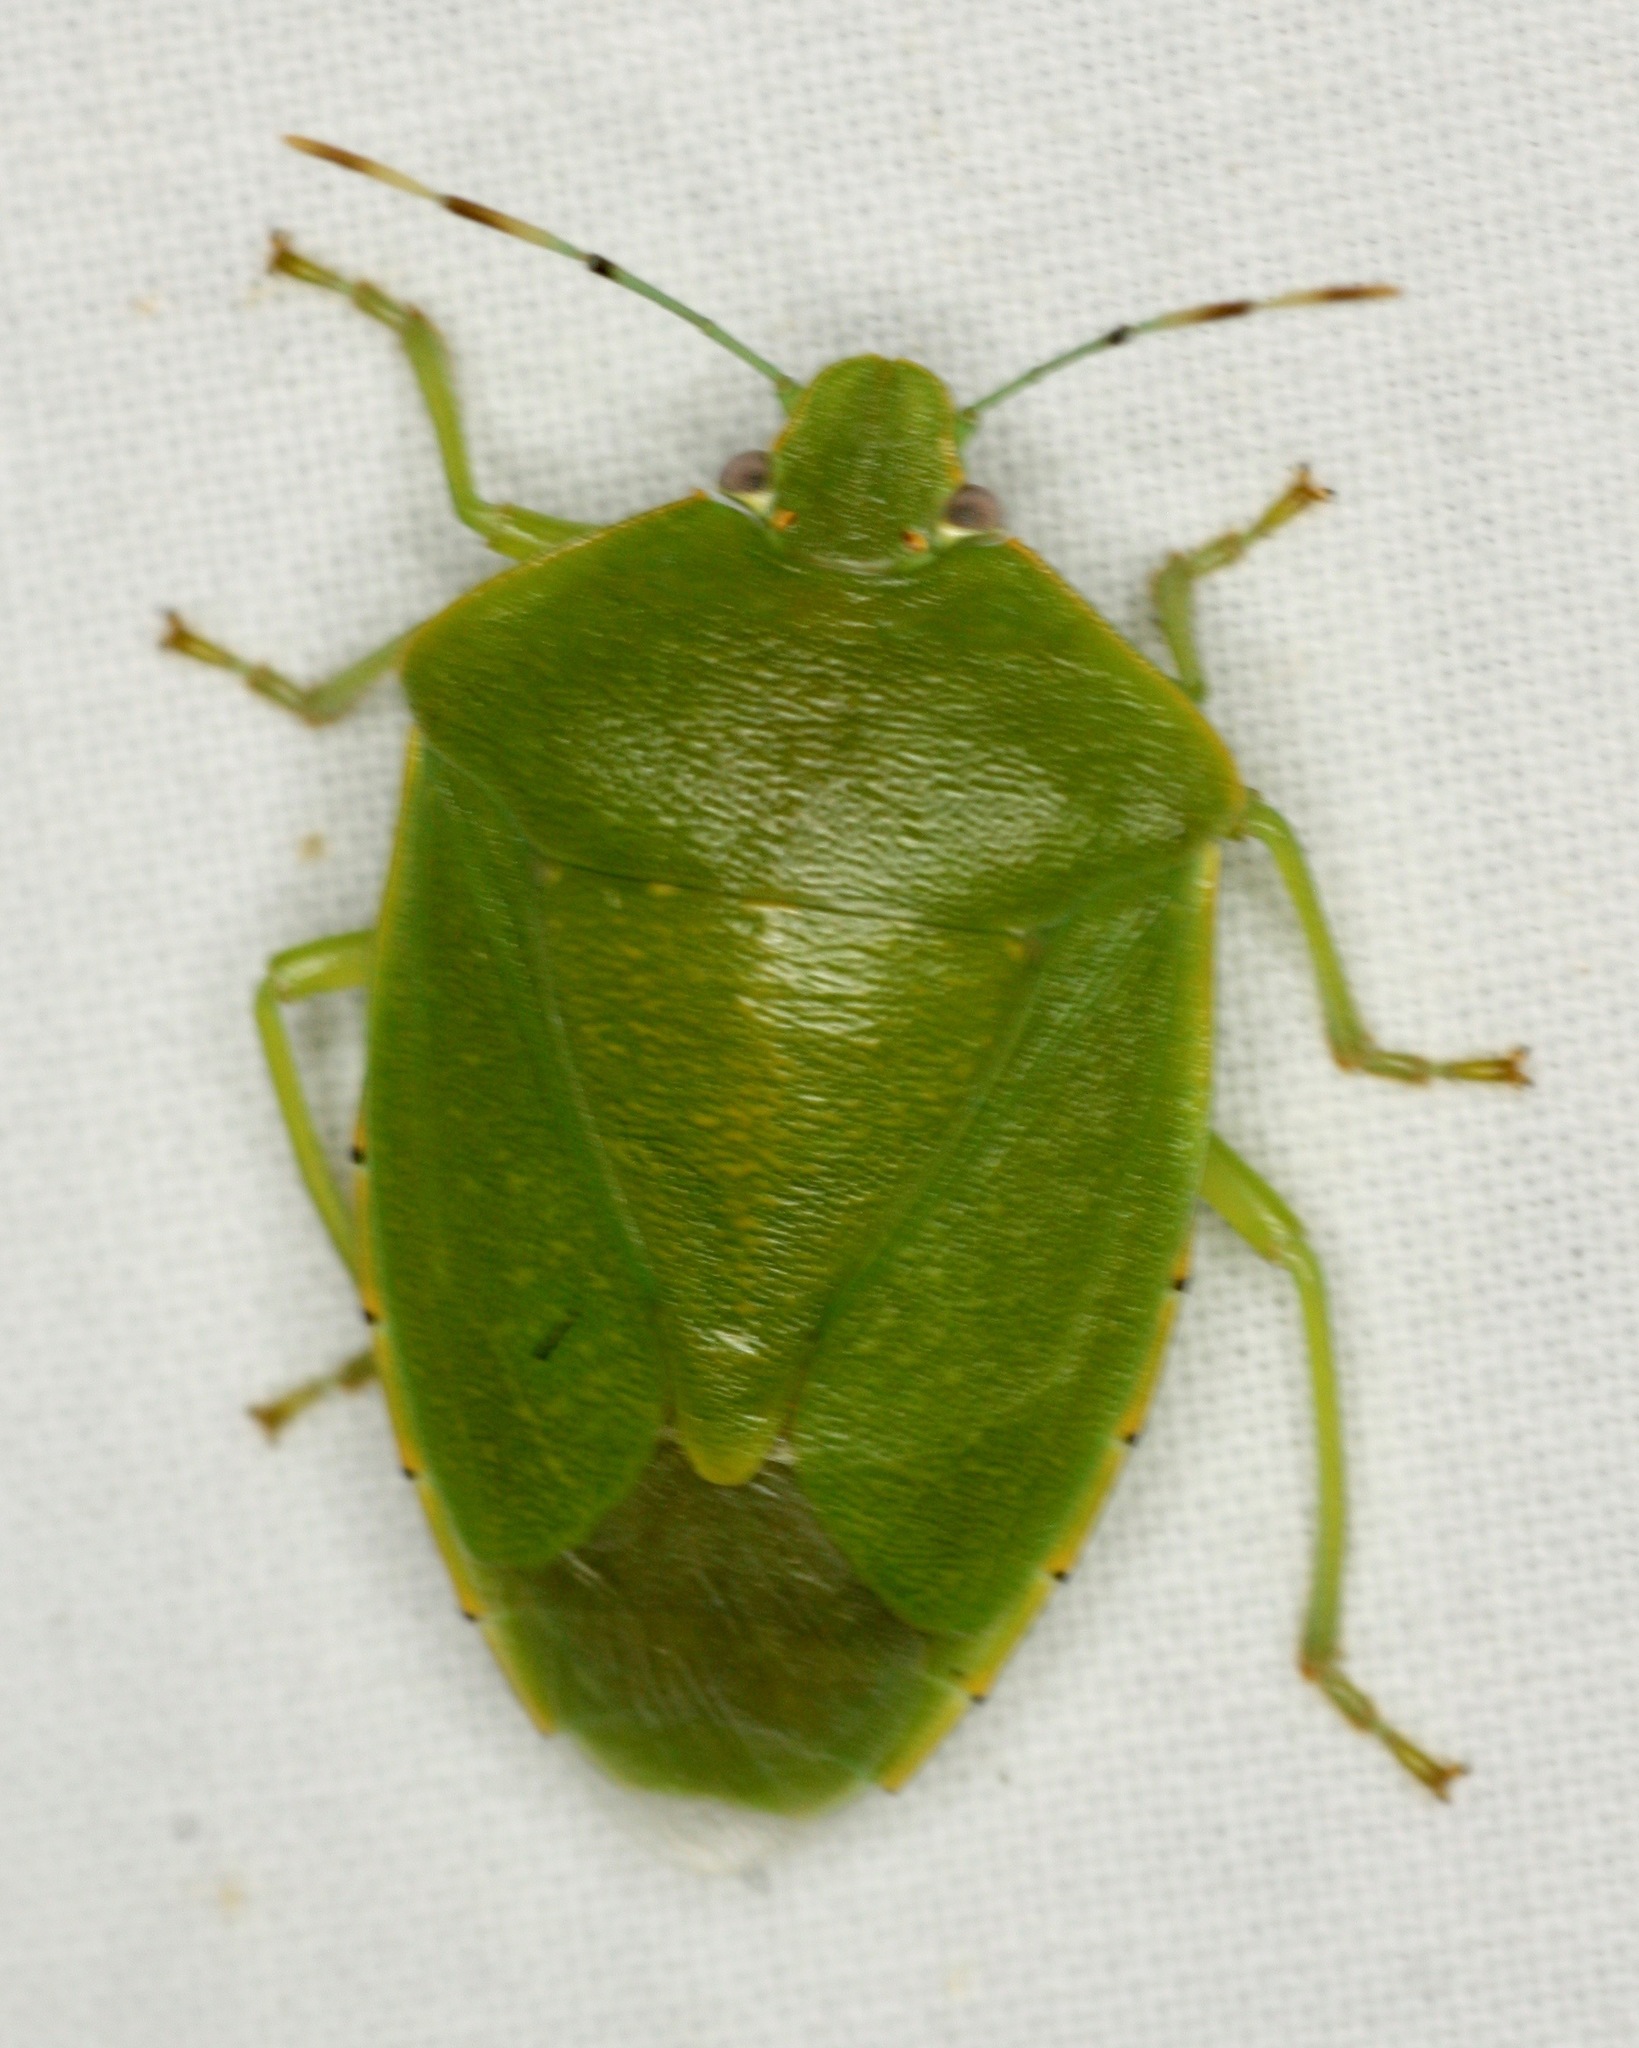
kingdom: Animalia
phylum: Arthropoda
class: Insecta
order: Hemiptera
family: Pentatomidae
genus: Chinavia
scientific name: Chinavia hilaris
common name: Green stink bug
